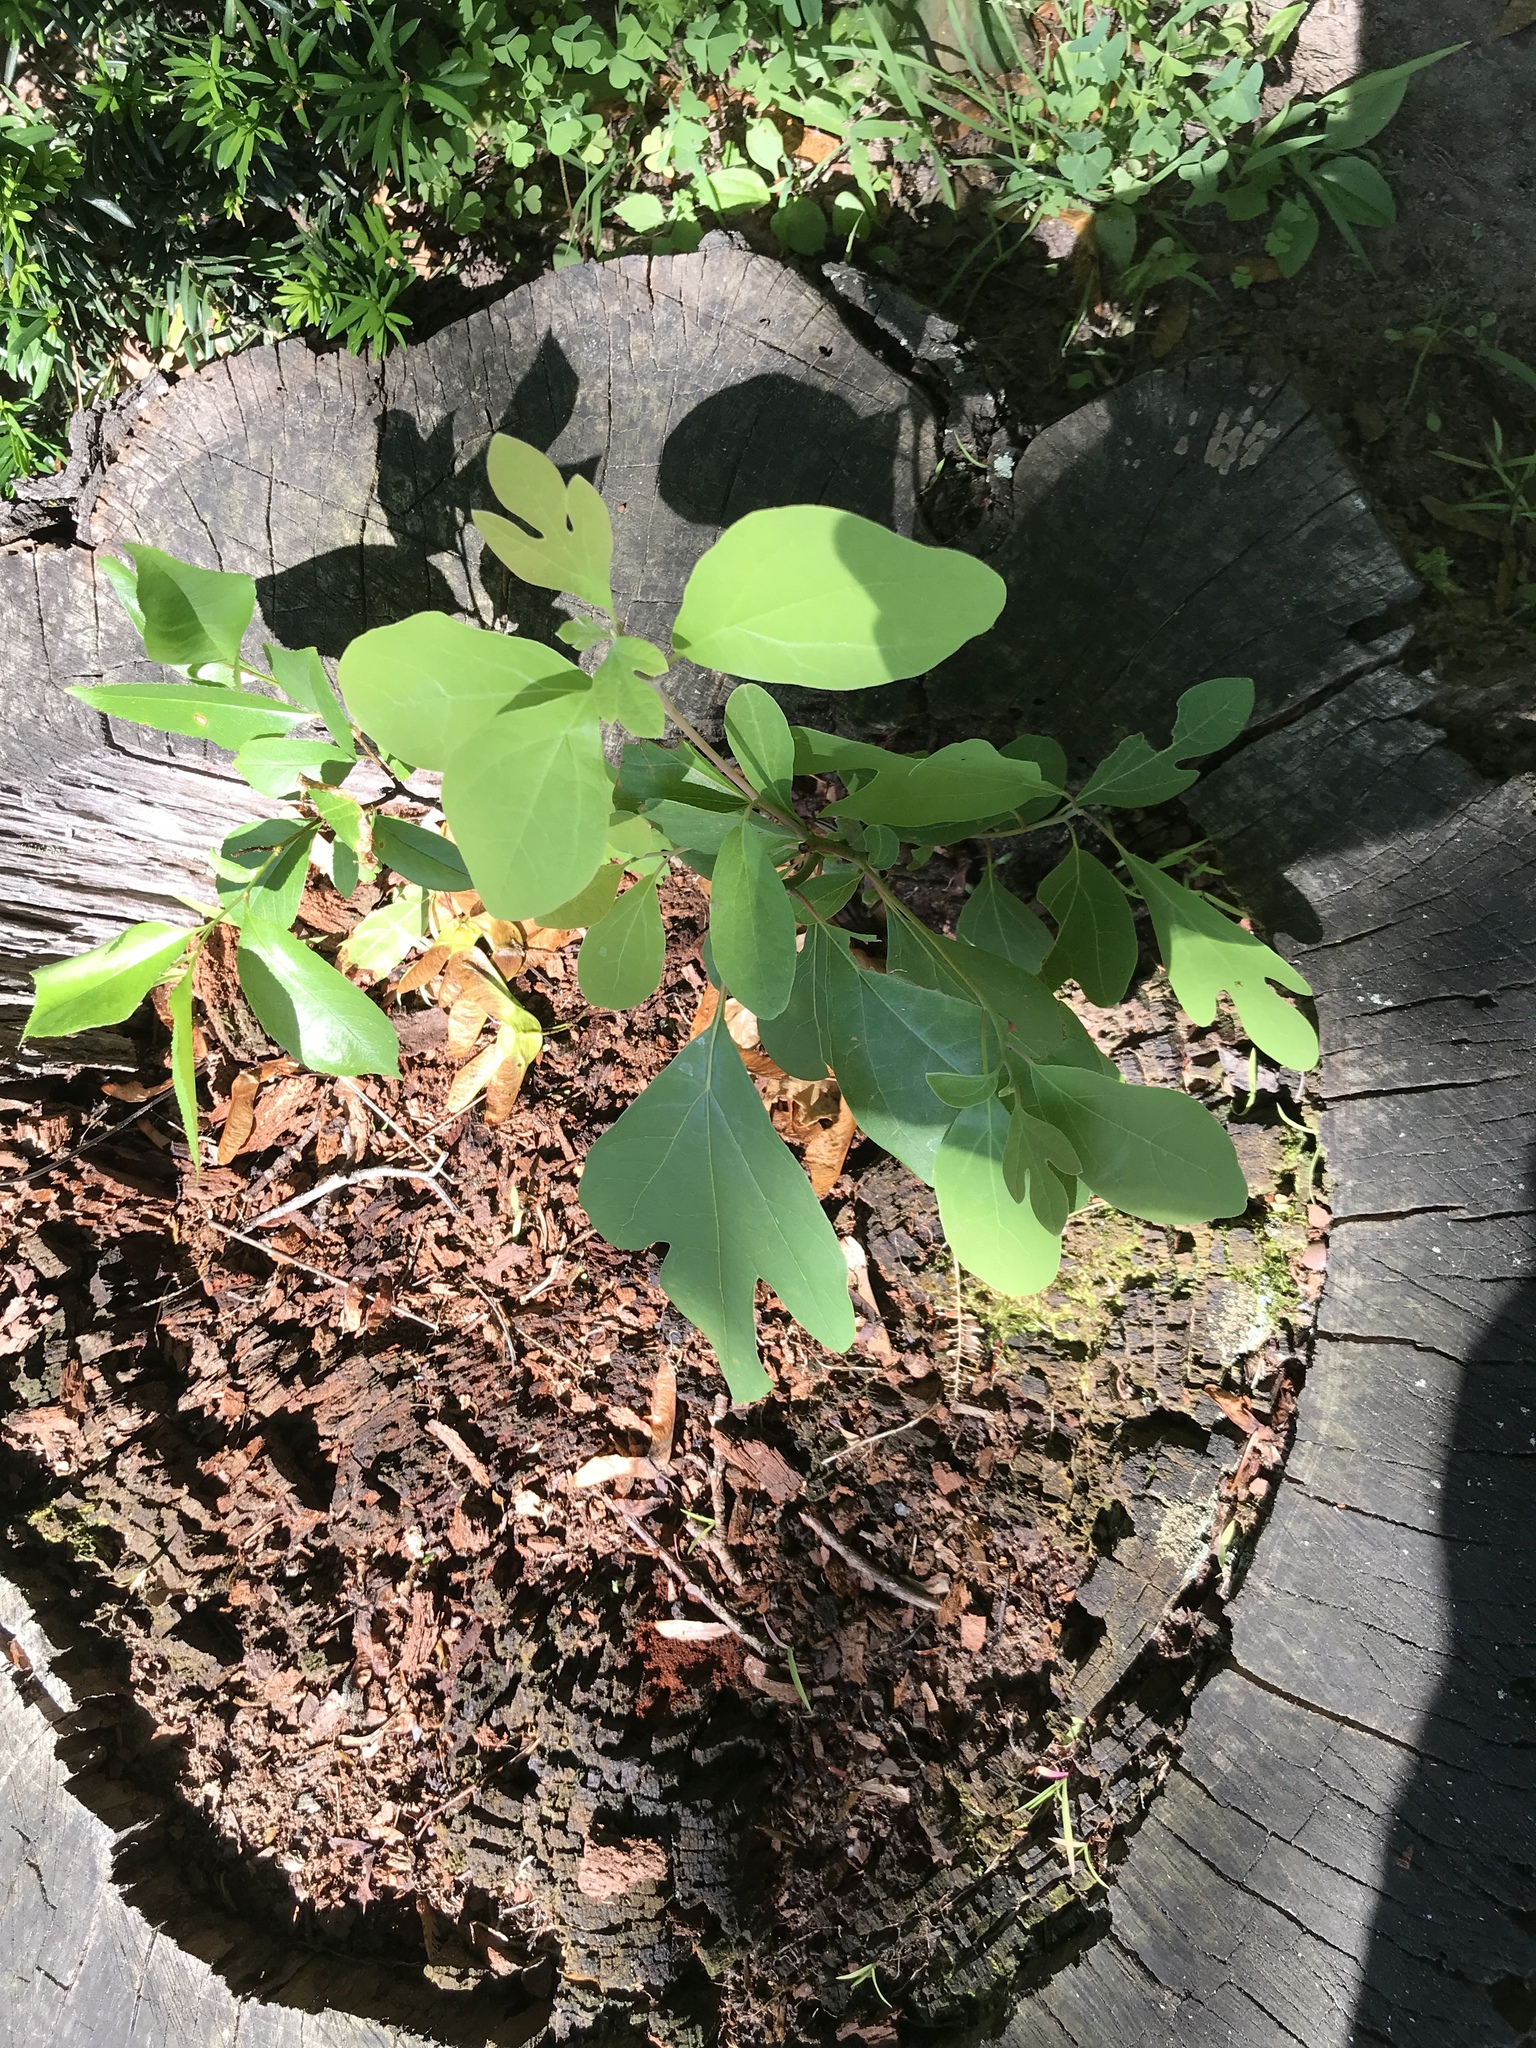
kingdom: Plantae
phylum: Tracheophyta
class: Magnoliopsida
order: Laurales
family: Lauraceae
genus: Sassafras
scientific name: Sassafras albidum
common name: Sassafras
